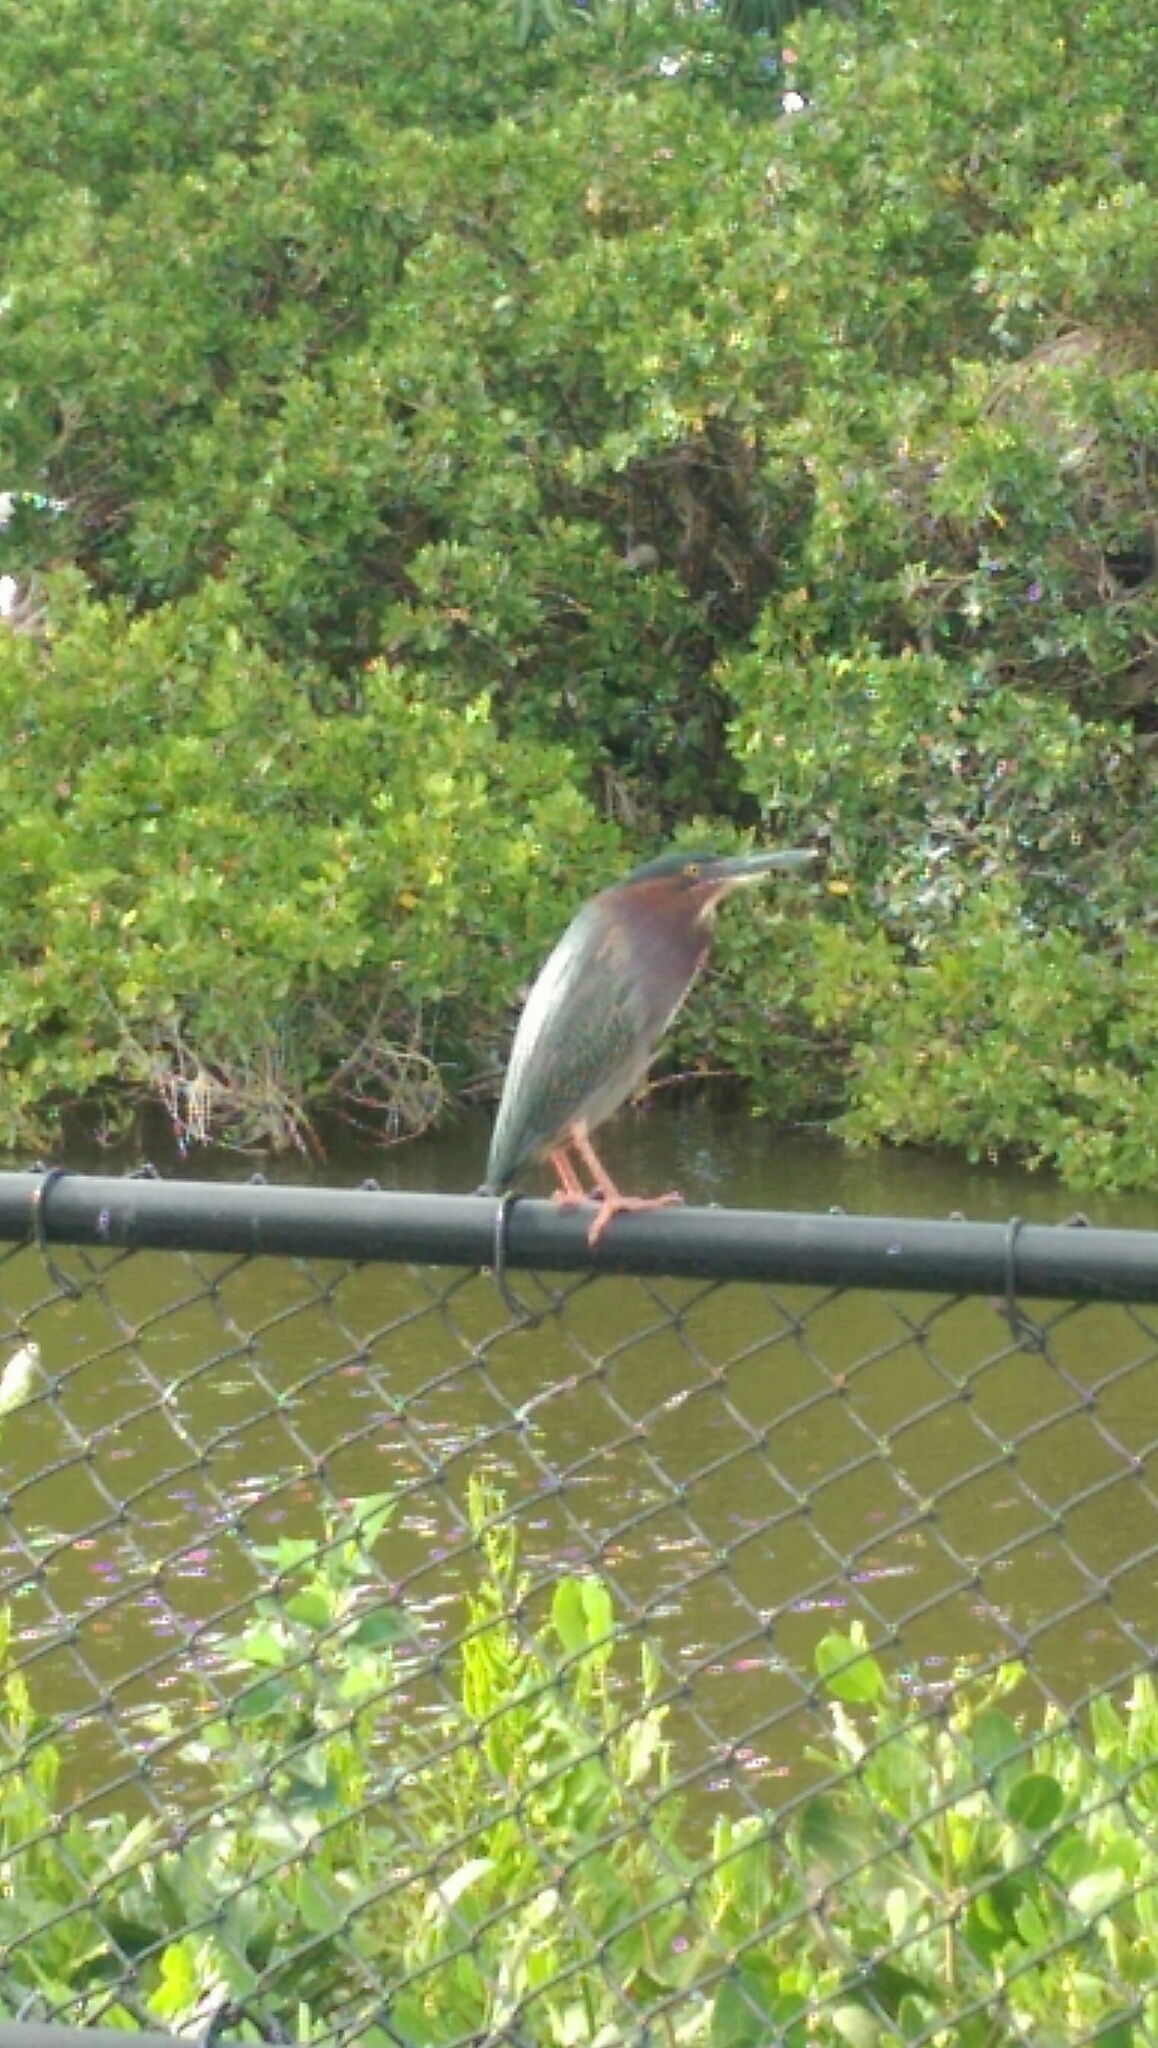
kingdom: Animalia
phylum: Chordata
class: Aves
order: Pelecaniformes
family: Ardeidae
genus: Butorides
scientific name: Butorides virescens
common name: Green heron
